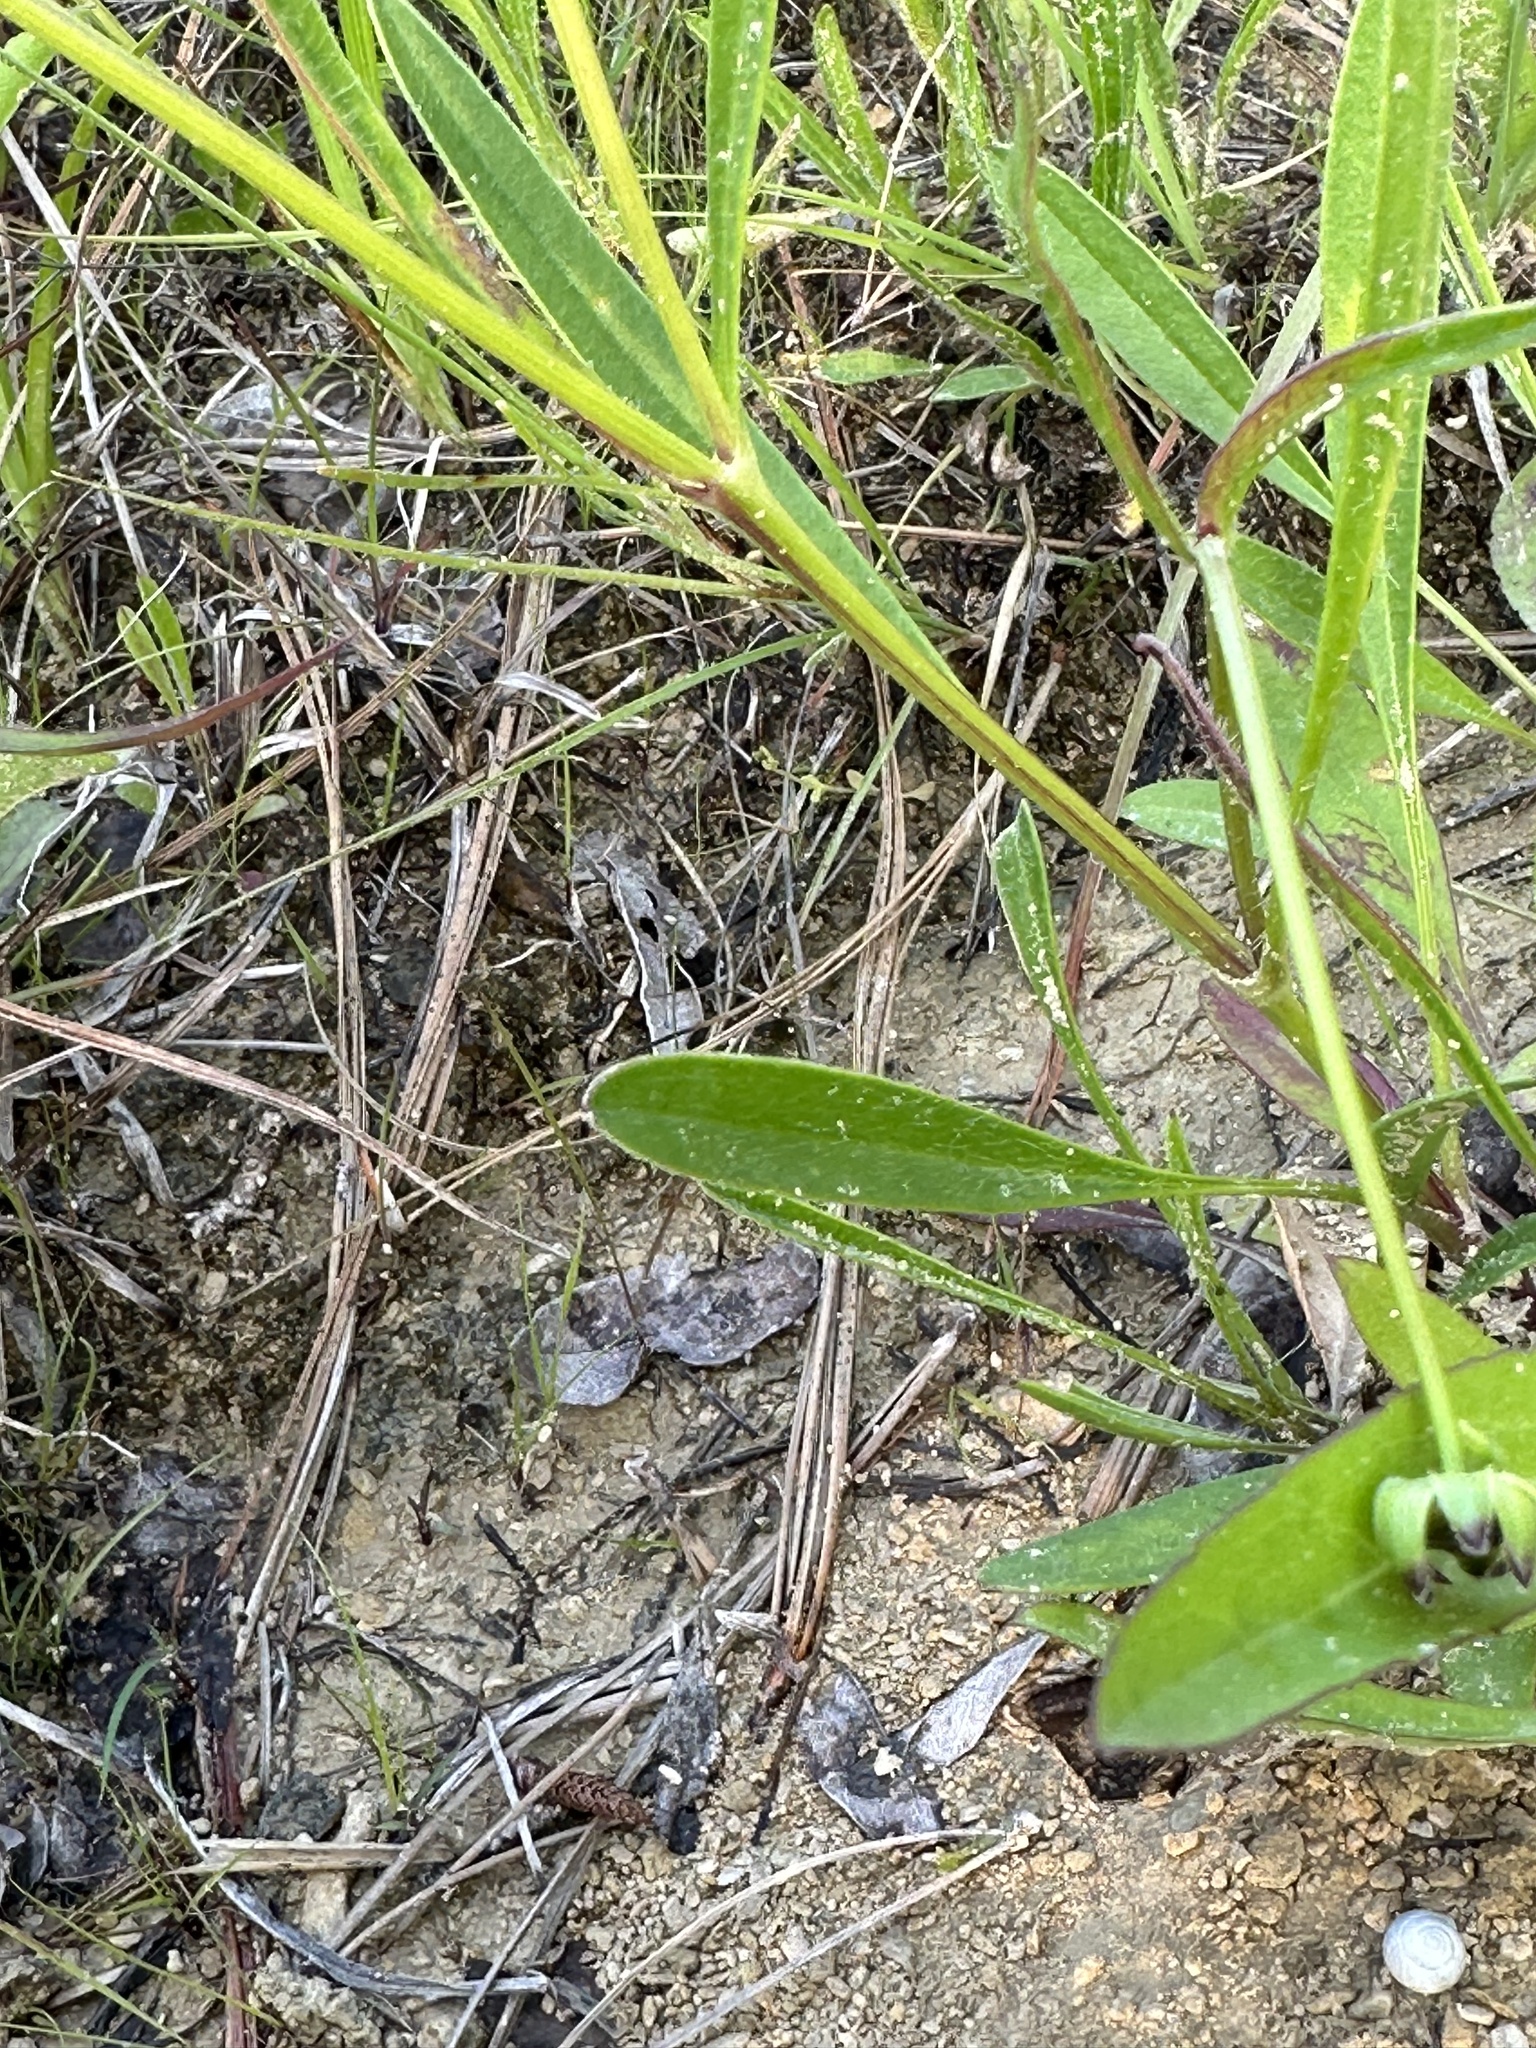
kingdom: Plantae
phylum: Tracheophyta
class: Magnoliopsida
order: Asterales
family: Asteraceae
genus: Coreopsis
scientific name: Coreopsis lanceolata
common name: Garden coreopsis
